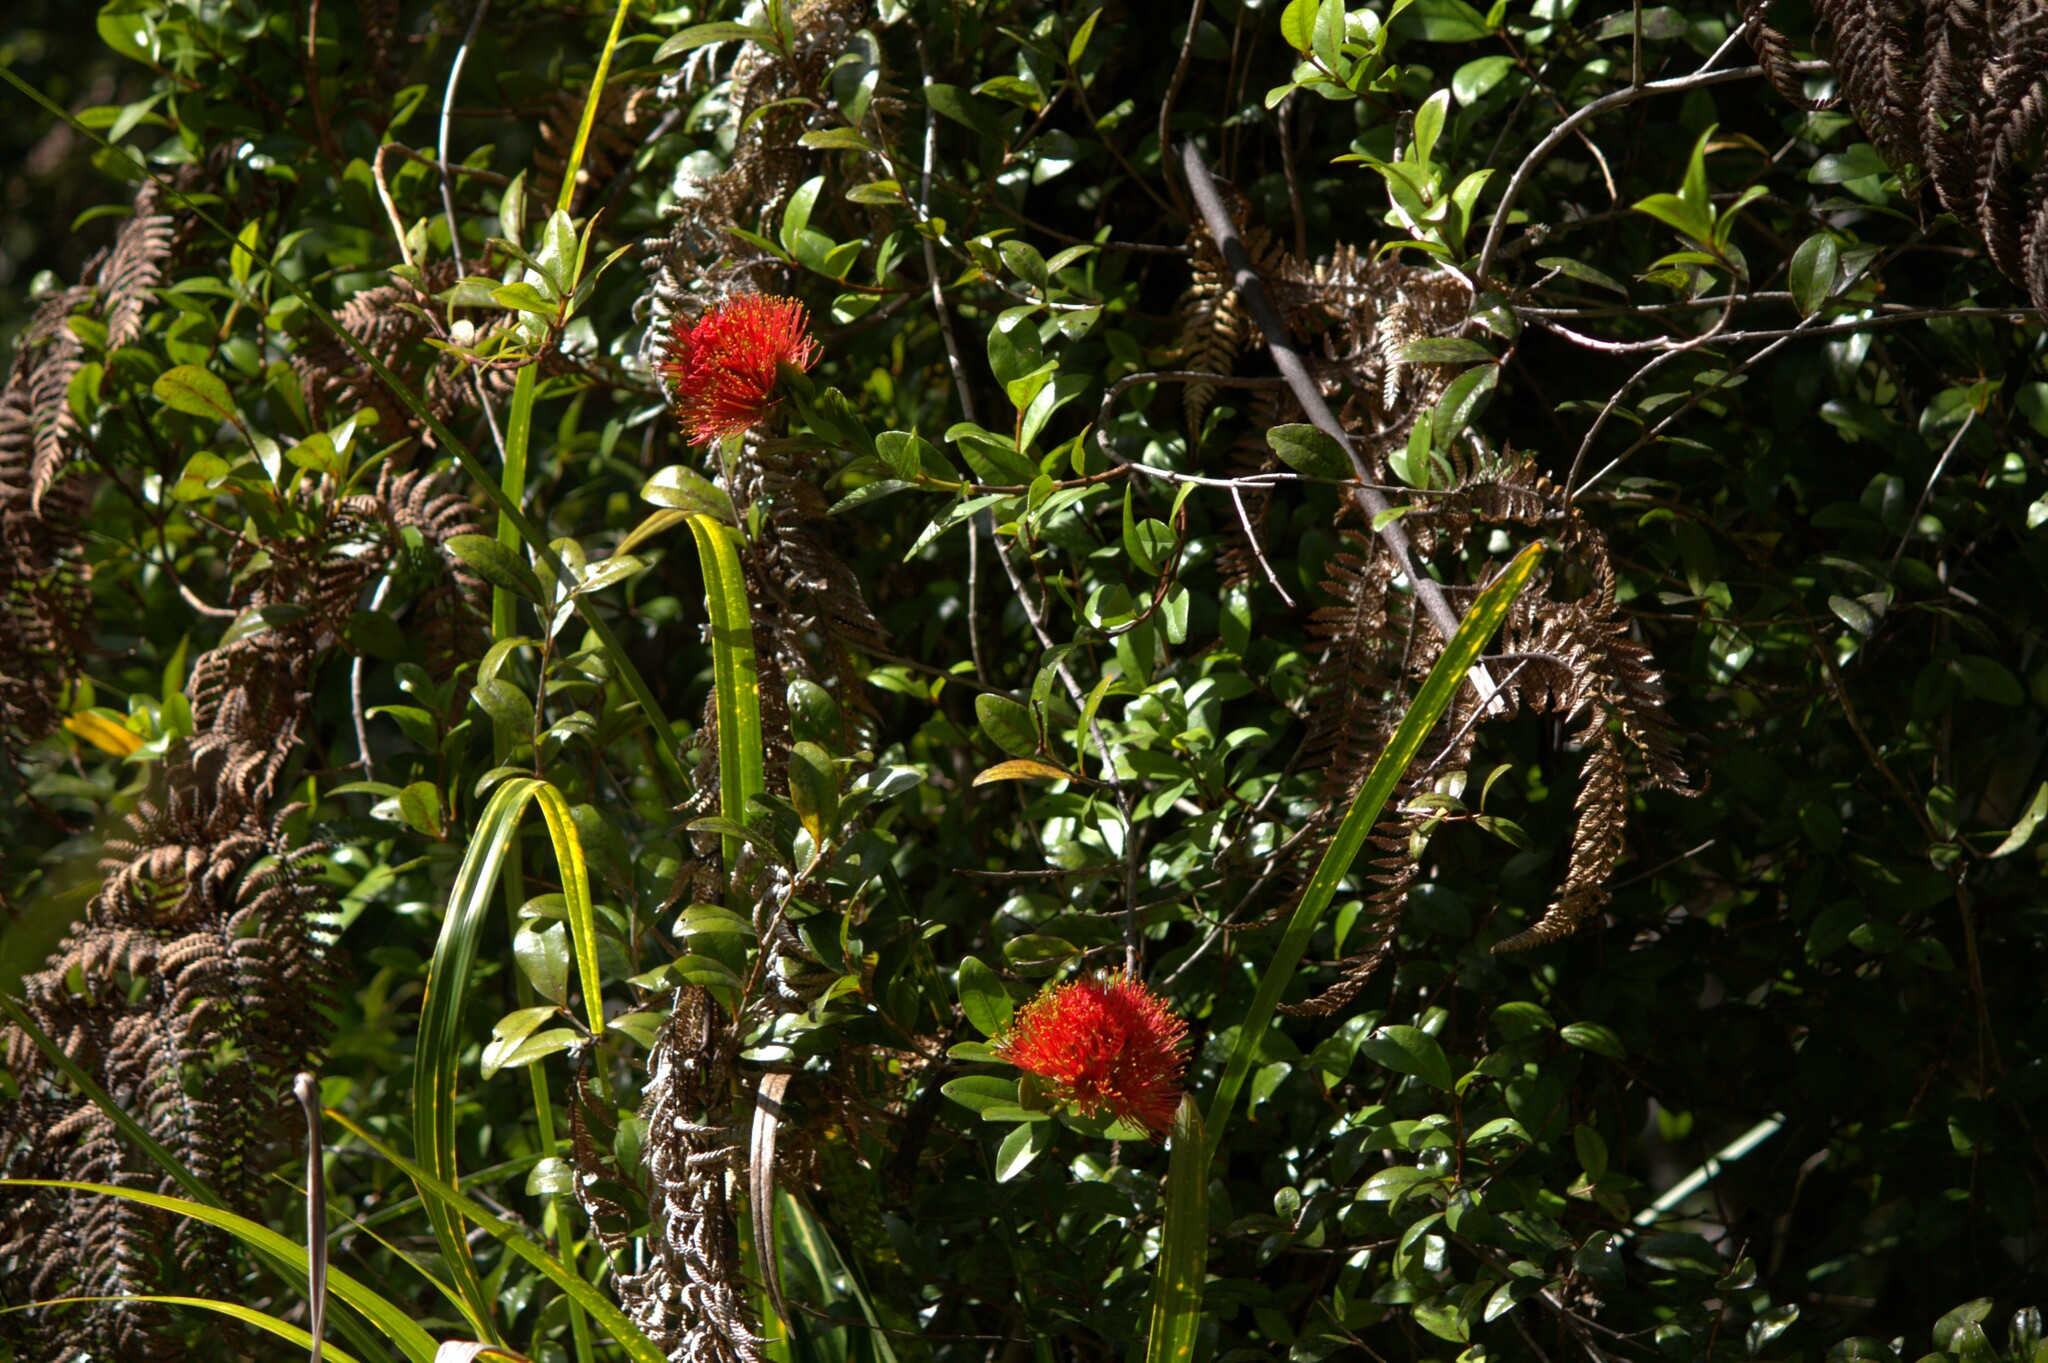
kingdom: Plantae
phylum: Tracheophyta
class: Magnoliopsida
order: Myrtales
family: Myrtaceae
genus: Metrosideros
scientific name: Metrosideros fulgens
